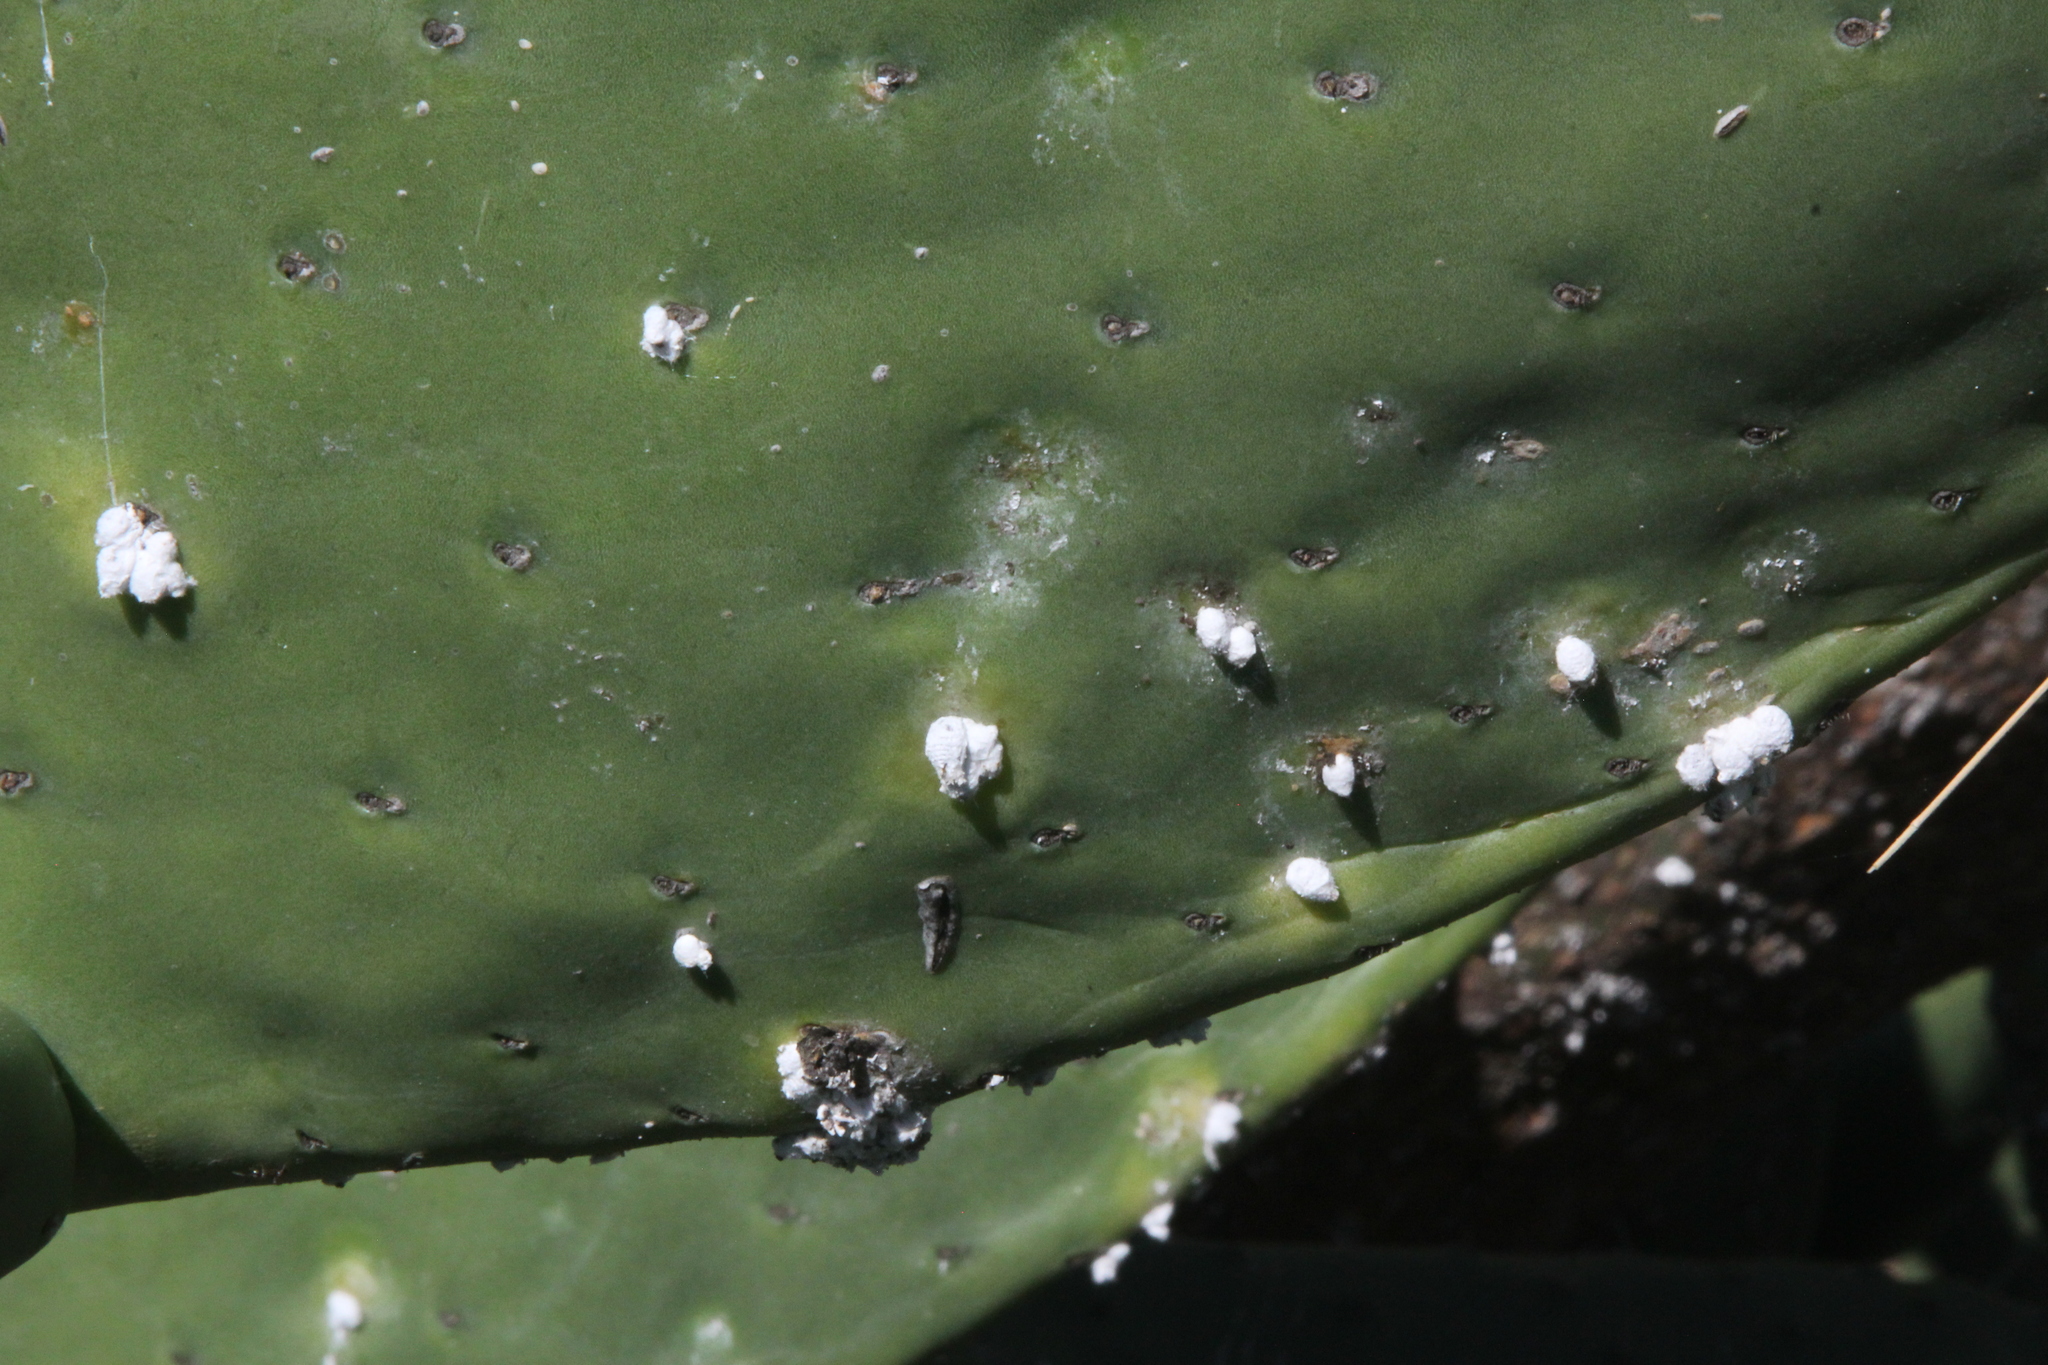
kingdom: Animalia
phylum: Arthropoda
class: Insecta
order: Hemiptera
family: Dactylopiidae
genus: Dactylopius
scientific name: Dactylopius confusus
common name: California cochineal scale
